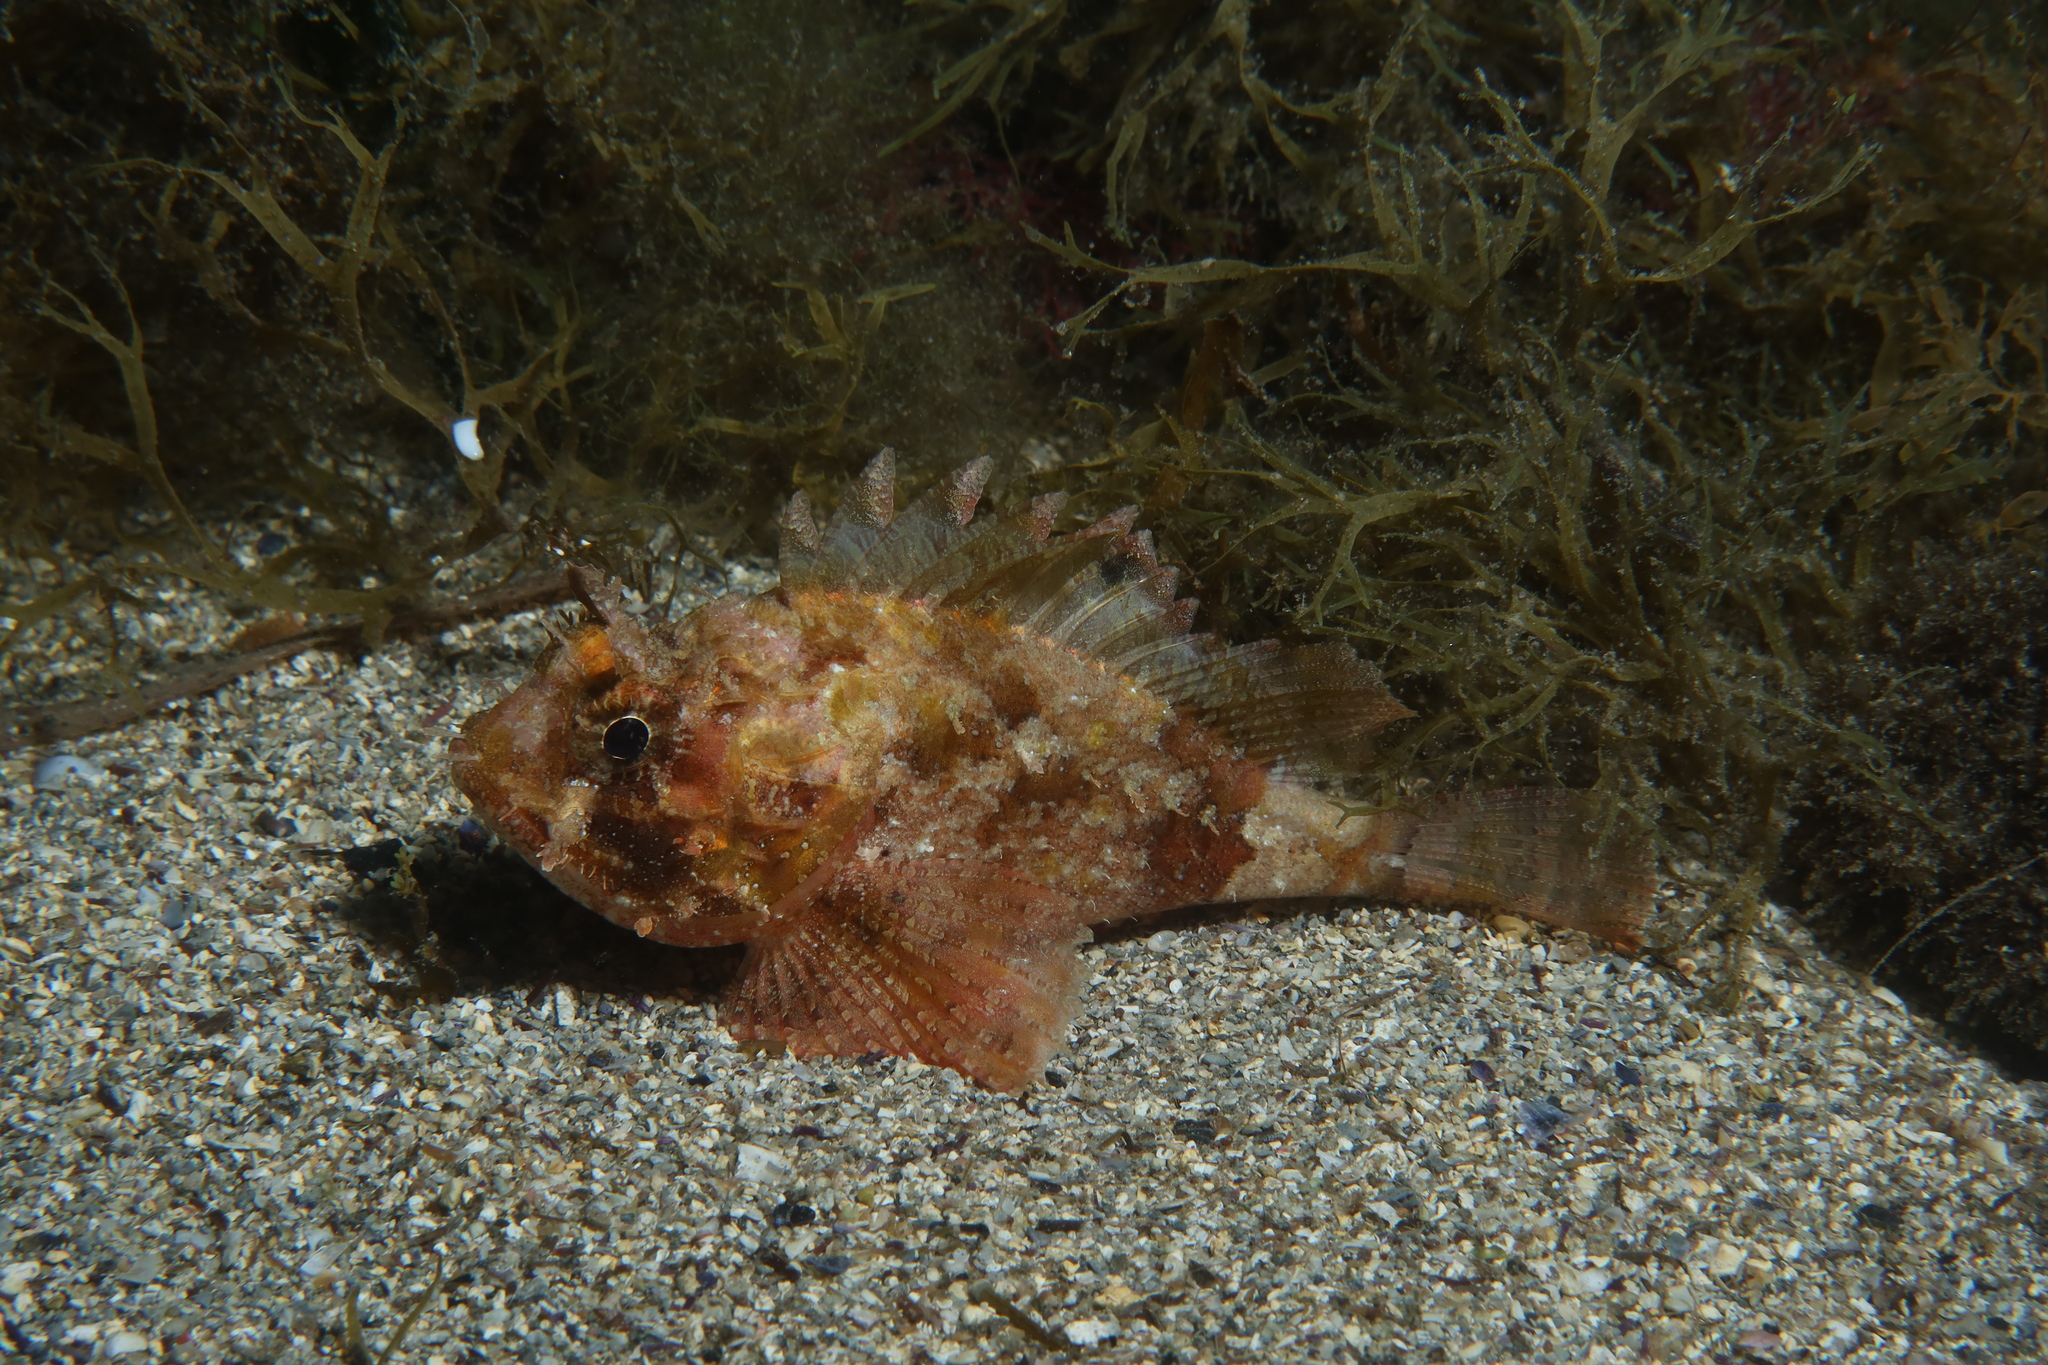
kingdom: Animalia
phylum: Chordata
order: Scorpaeniformes
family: Scorpaenidae
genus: Scorpaena
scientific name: Scorpaena porcus
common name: Black scorpionfish
